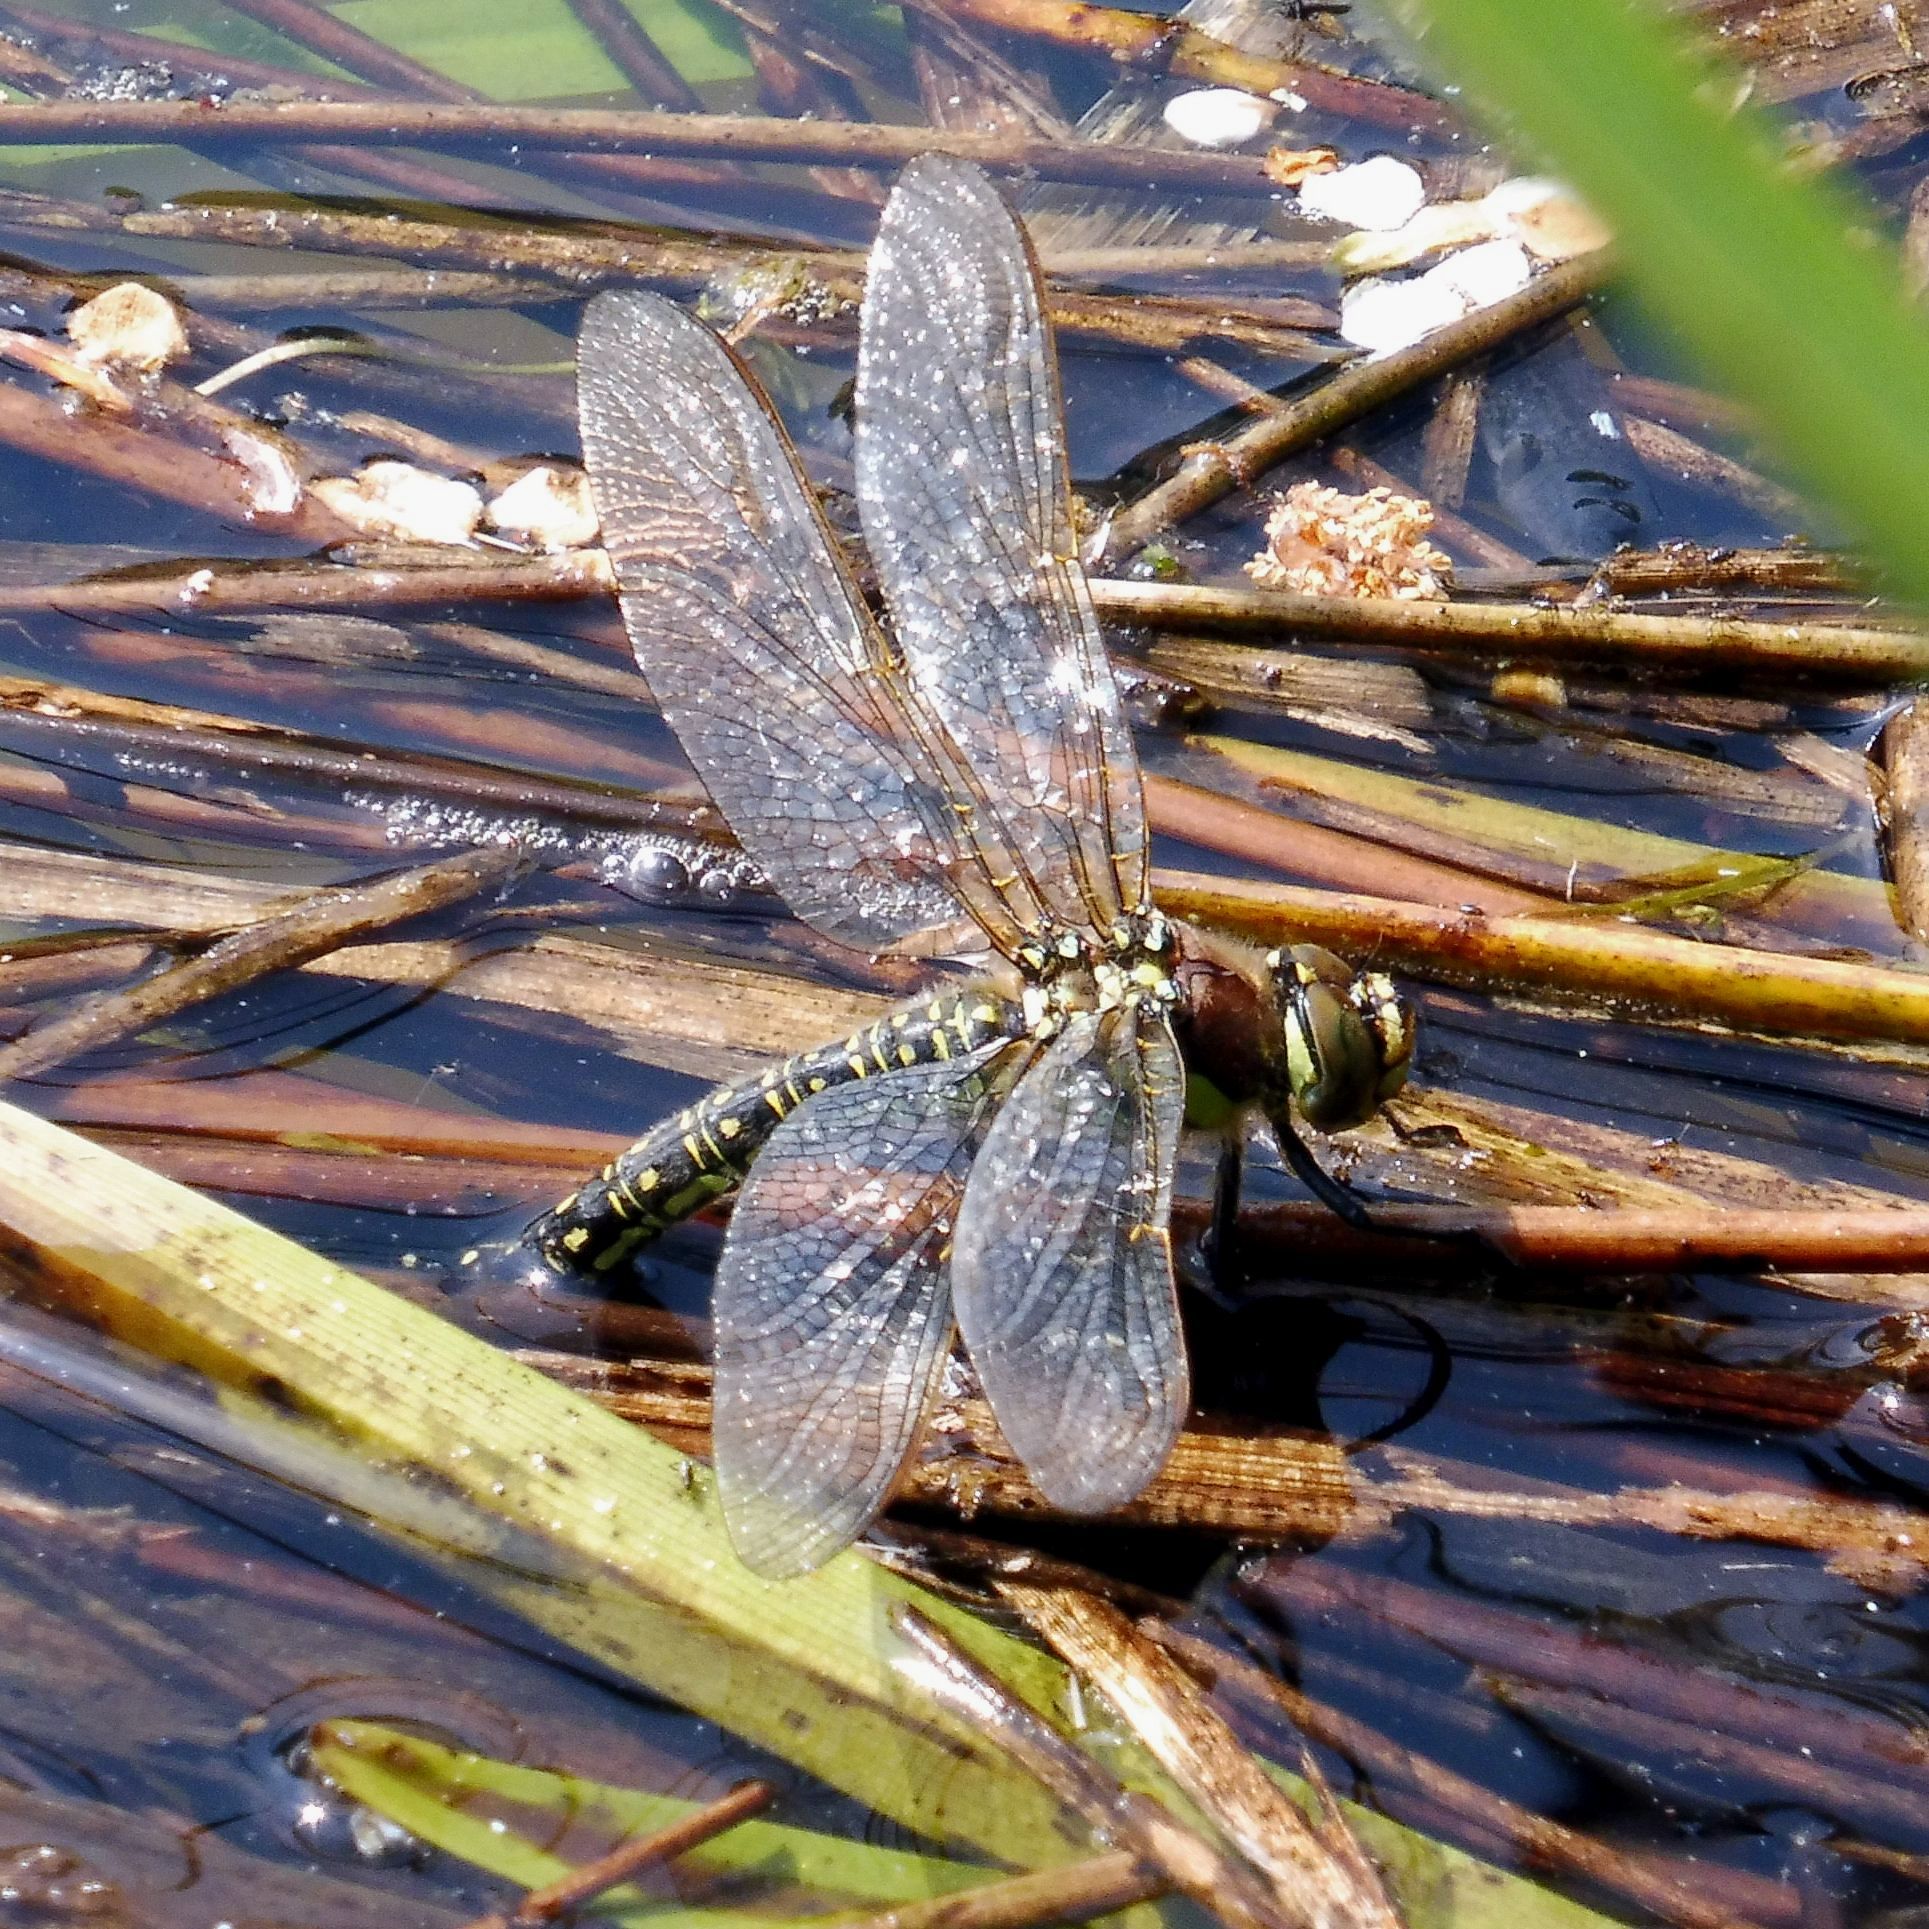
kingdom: Animalia
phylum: Arthropoda
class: Insecta
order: Odonata
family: Aeshnidae
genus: Brachytron
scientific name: Brachytron pratense
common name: Hairy hawker
